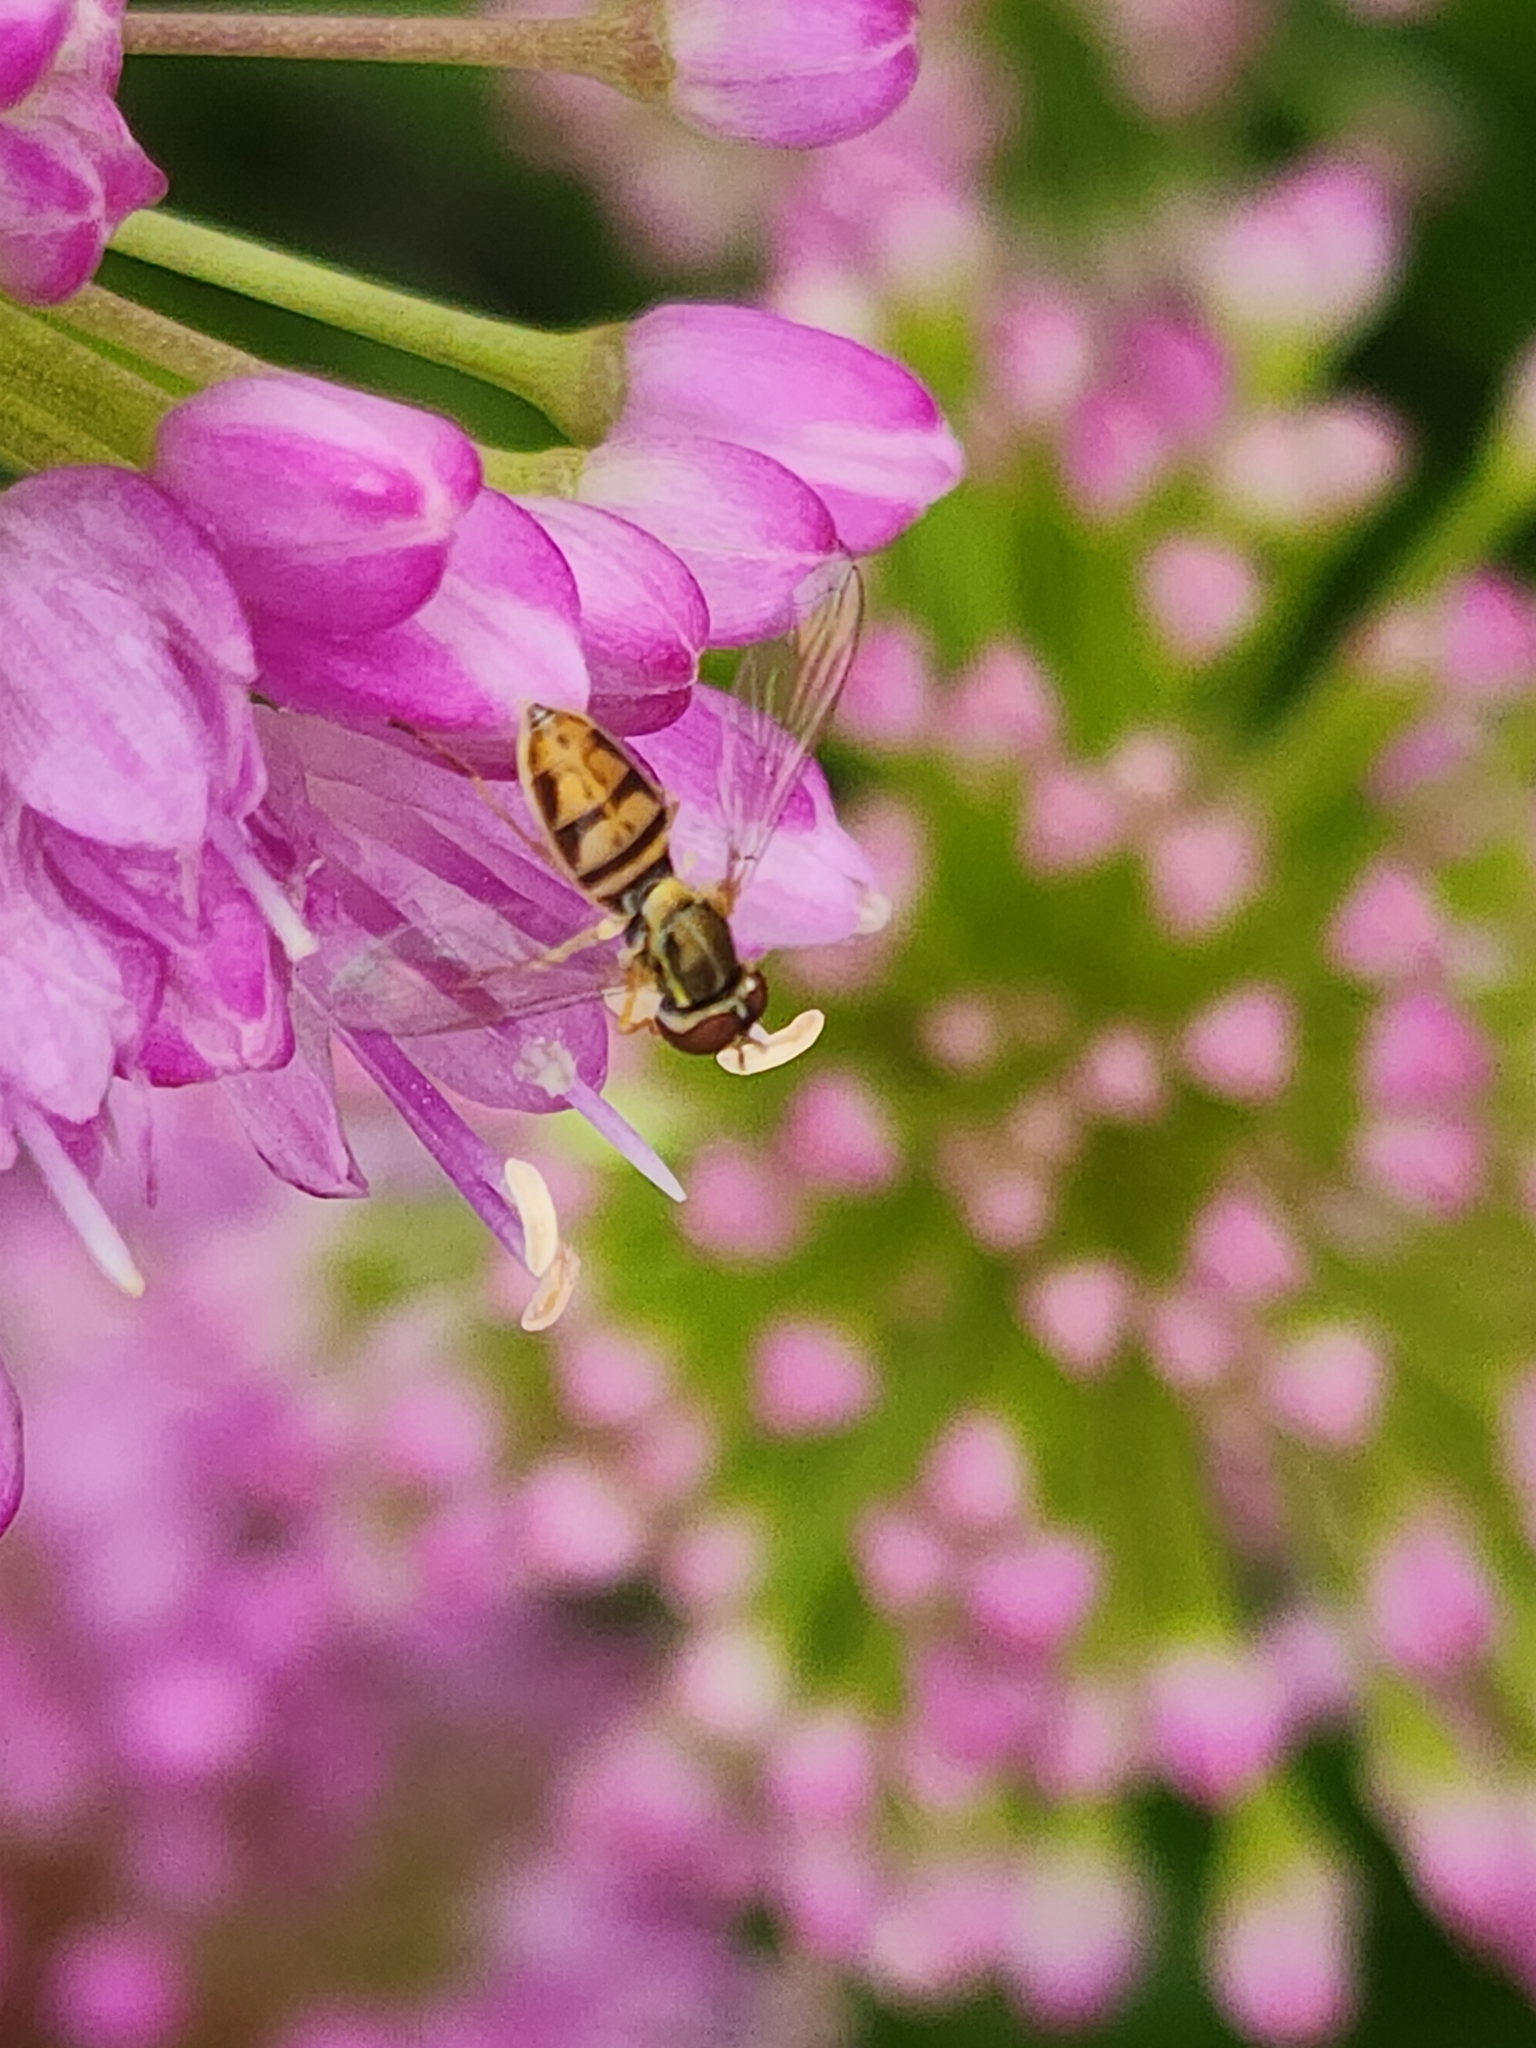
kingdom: Animalia
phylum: Arthropoda
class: Insecta
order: Diptera
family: Syrphidae
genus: Toxomerus
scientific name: Toxomerus marginatus
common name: Syrphid fly
